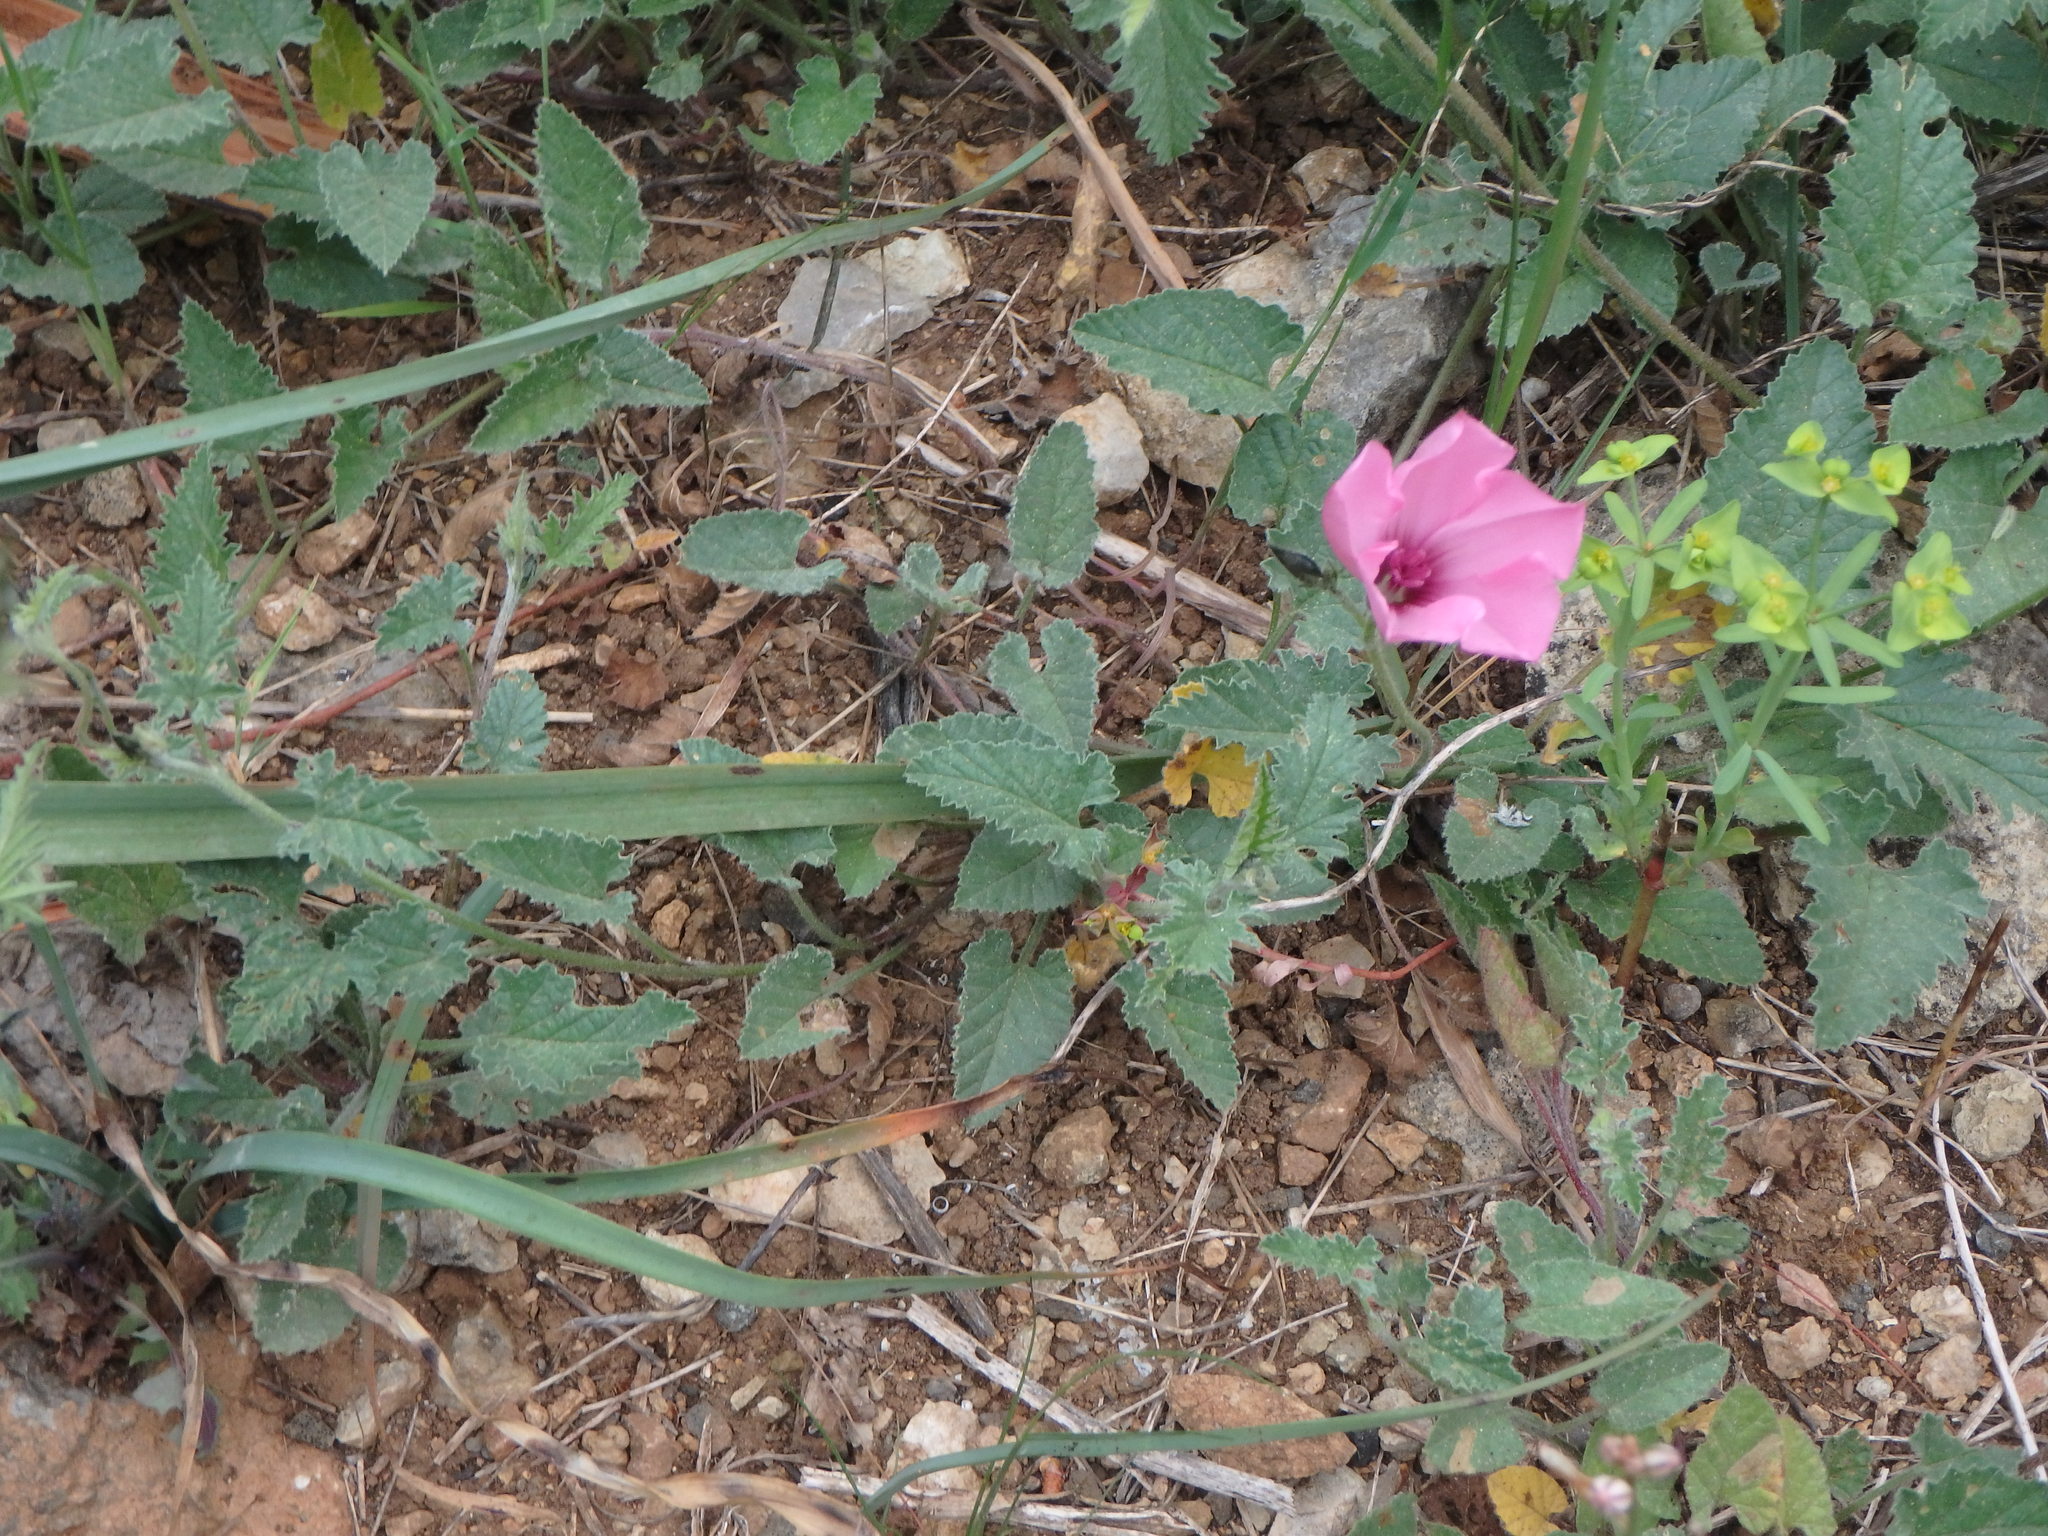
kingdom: Plantae
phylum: Tracheophyta
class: Magnoliopsida
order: Solanales
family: Convolvulaceae
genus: Convolvulus
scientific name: Convolvulus althaeoides
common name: Mallow bindweed
